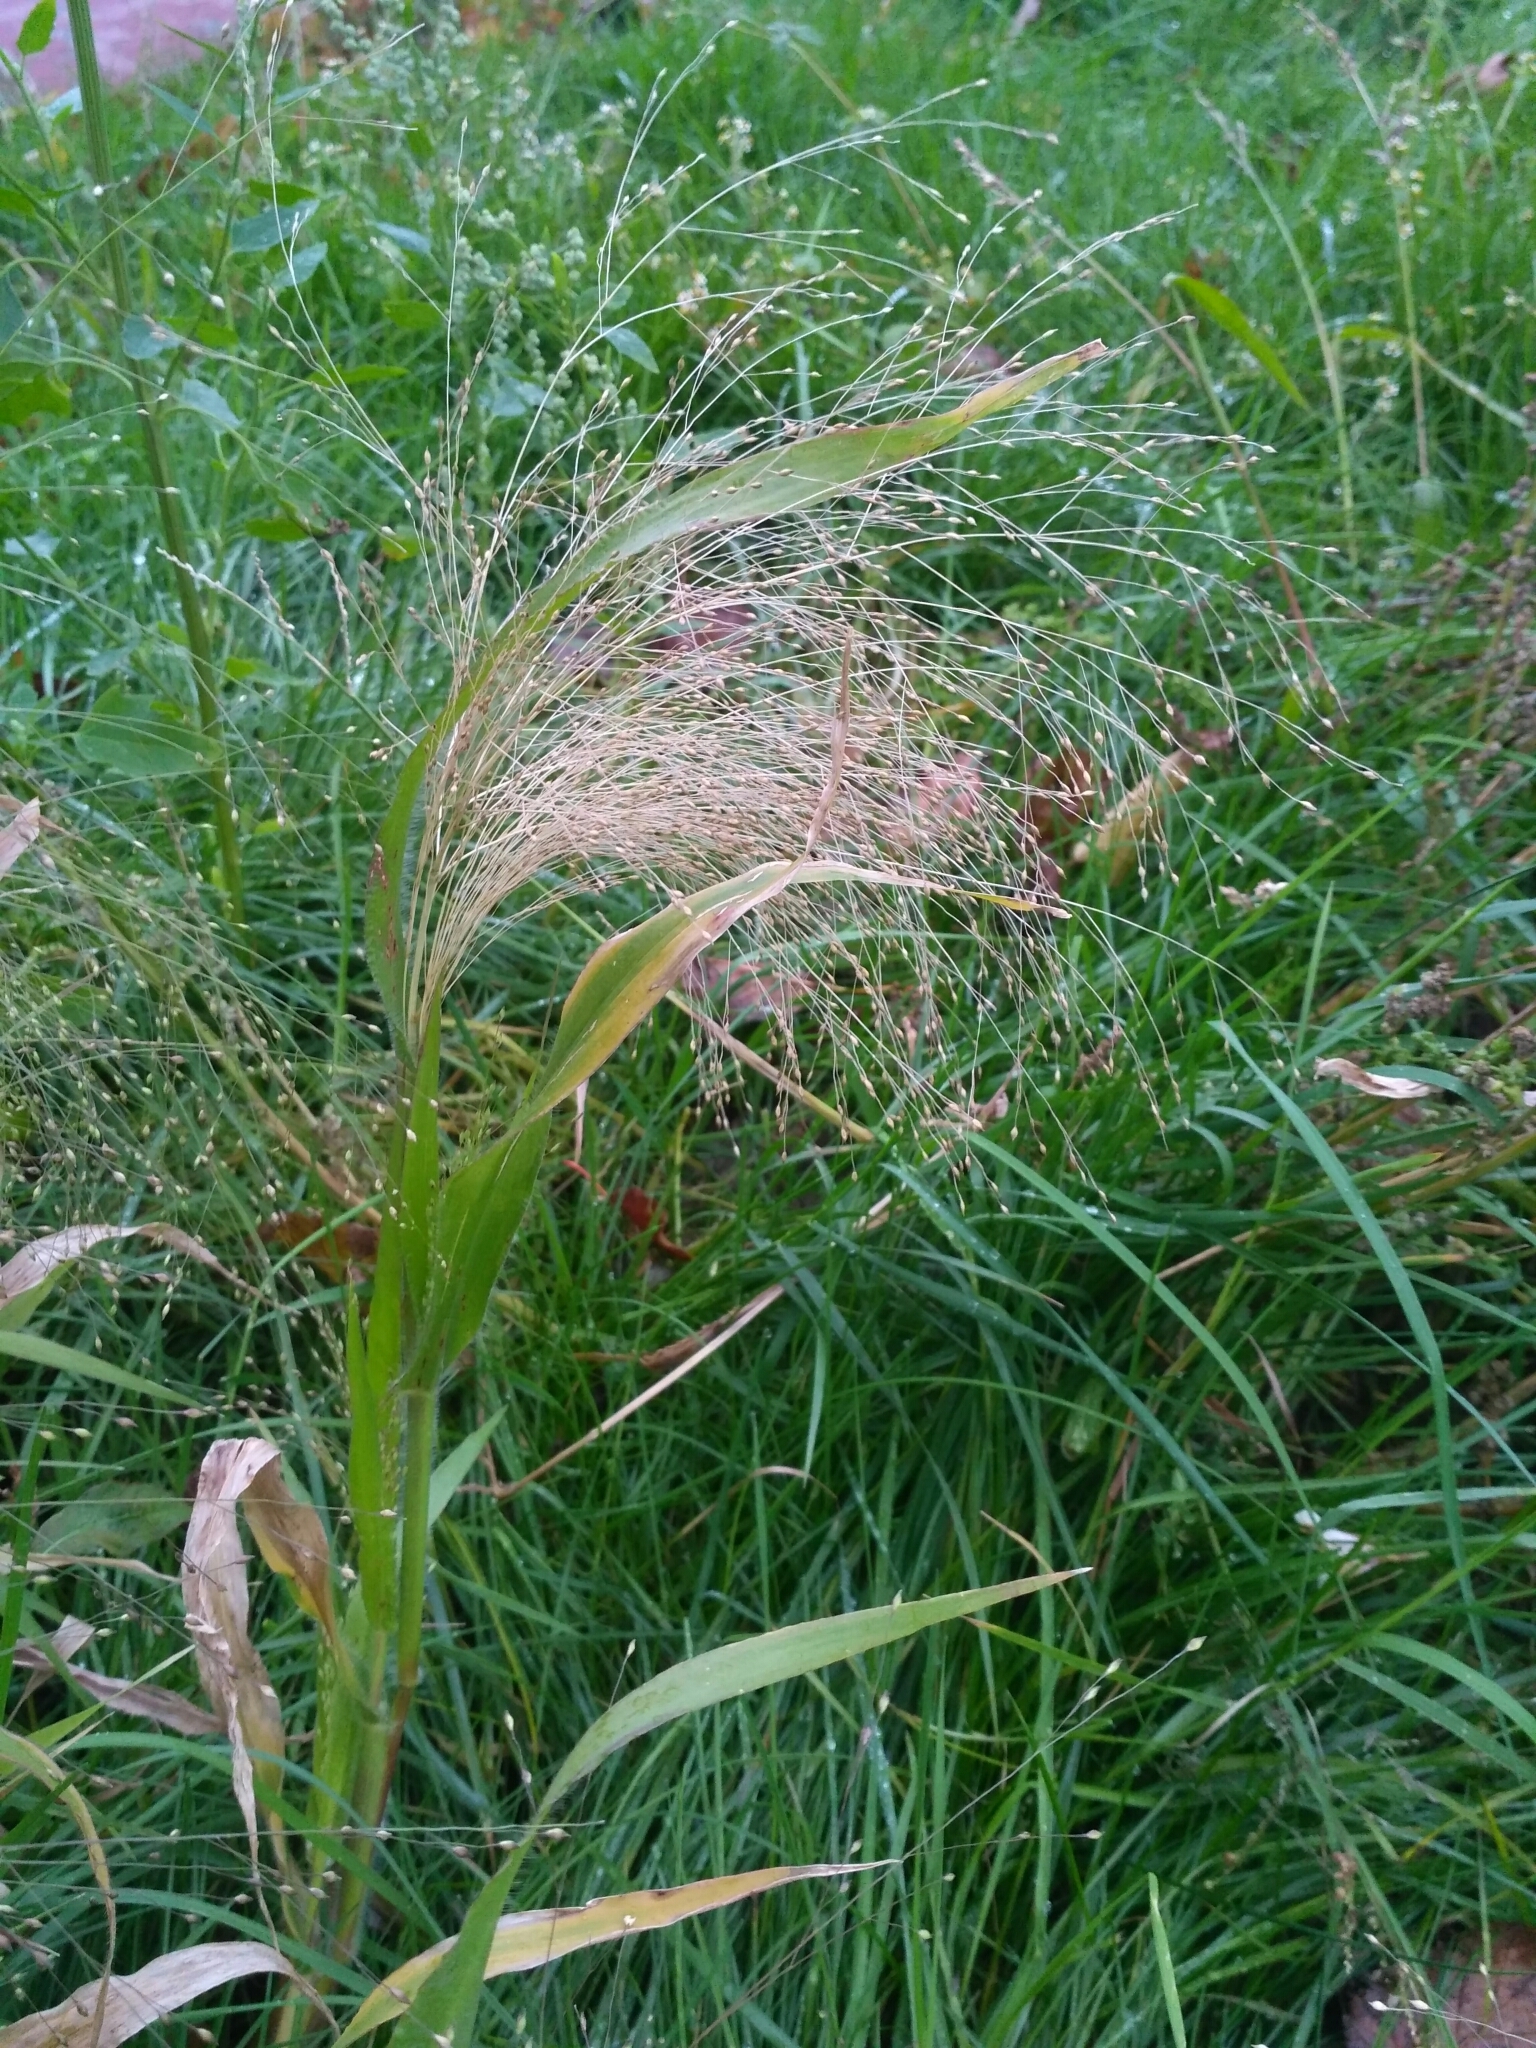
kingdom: Plantae
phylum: Tracheophyta
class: Liliopsida
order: Poales
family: Poaceae
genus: Panicum
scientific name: Panicum capillare
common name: Witch-grass
